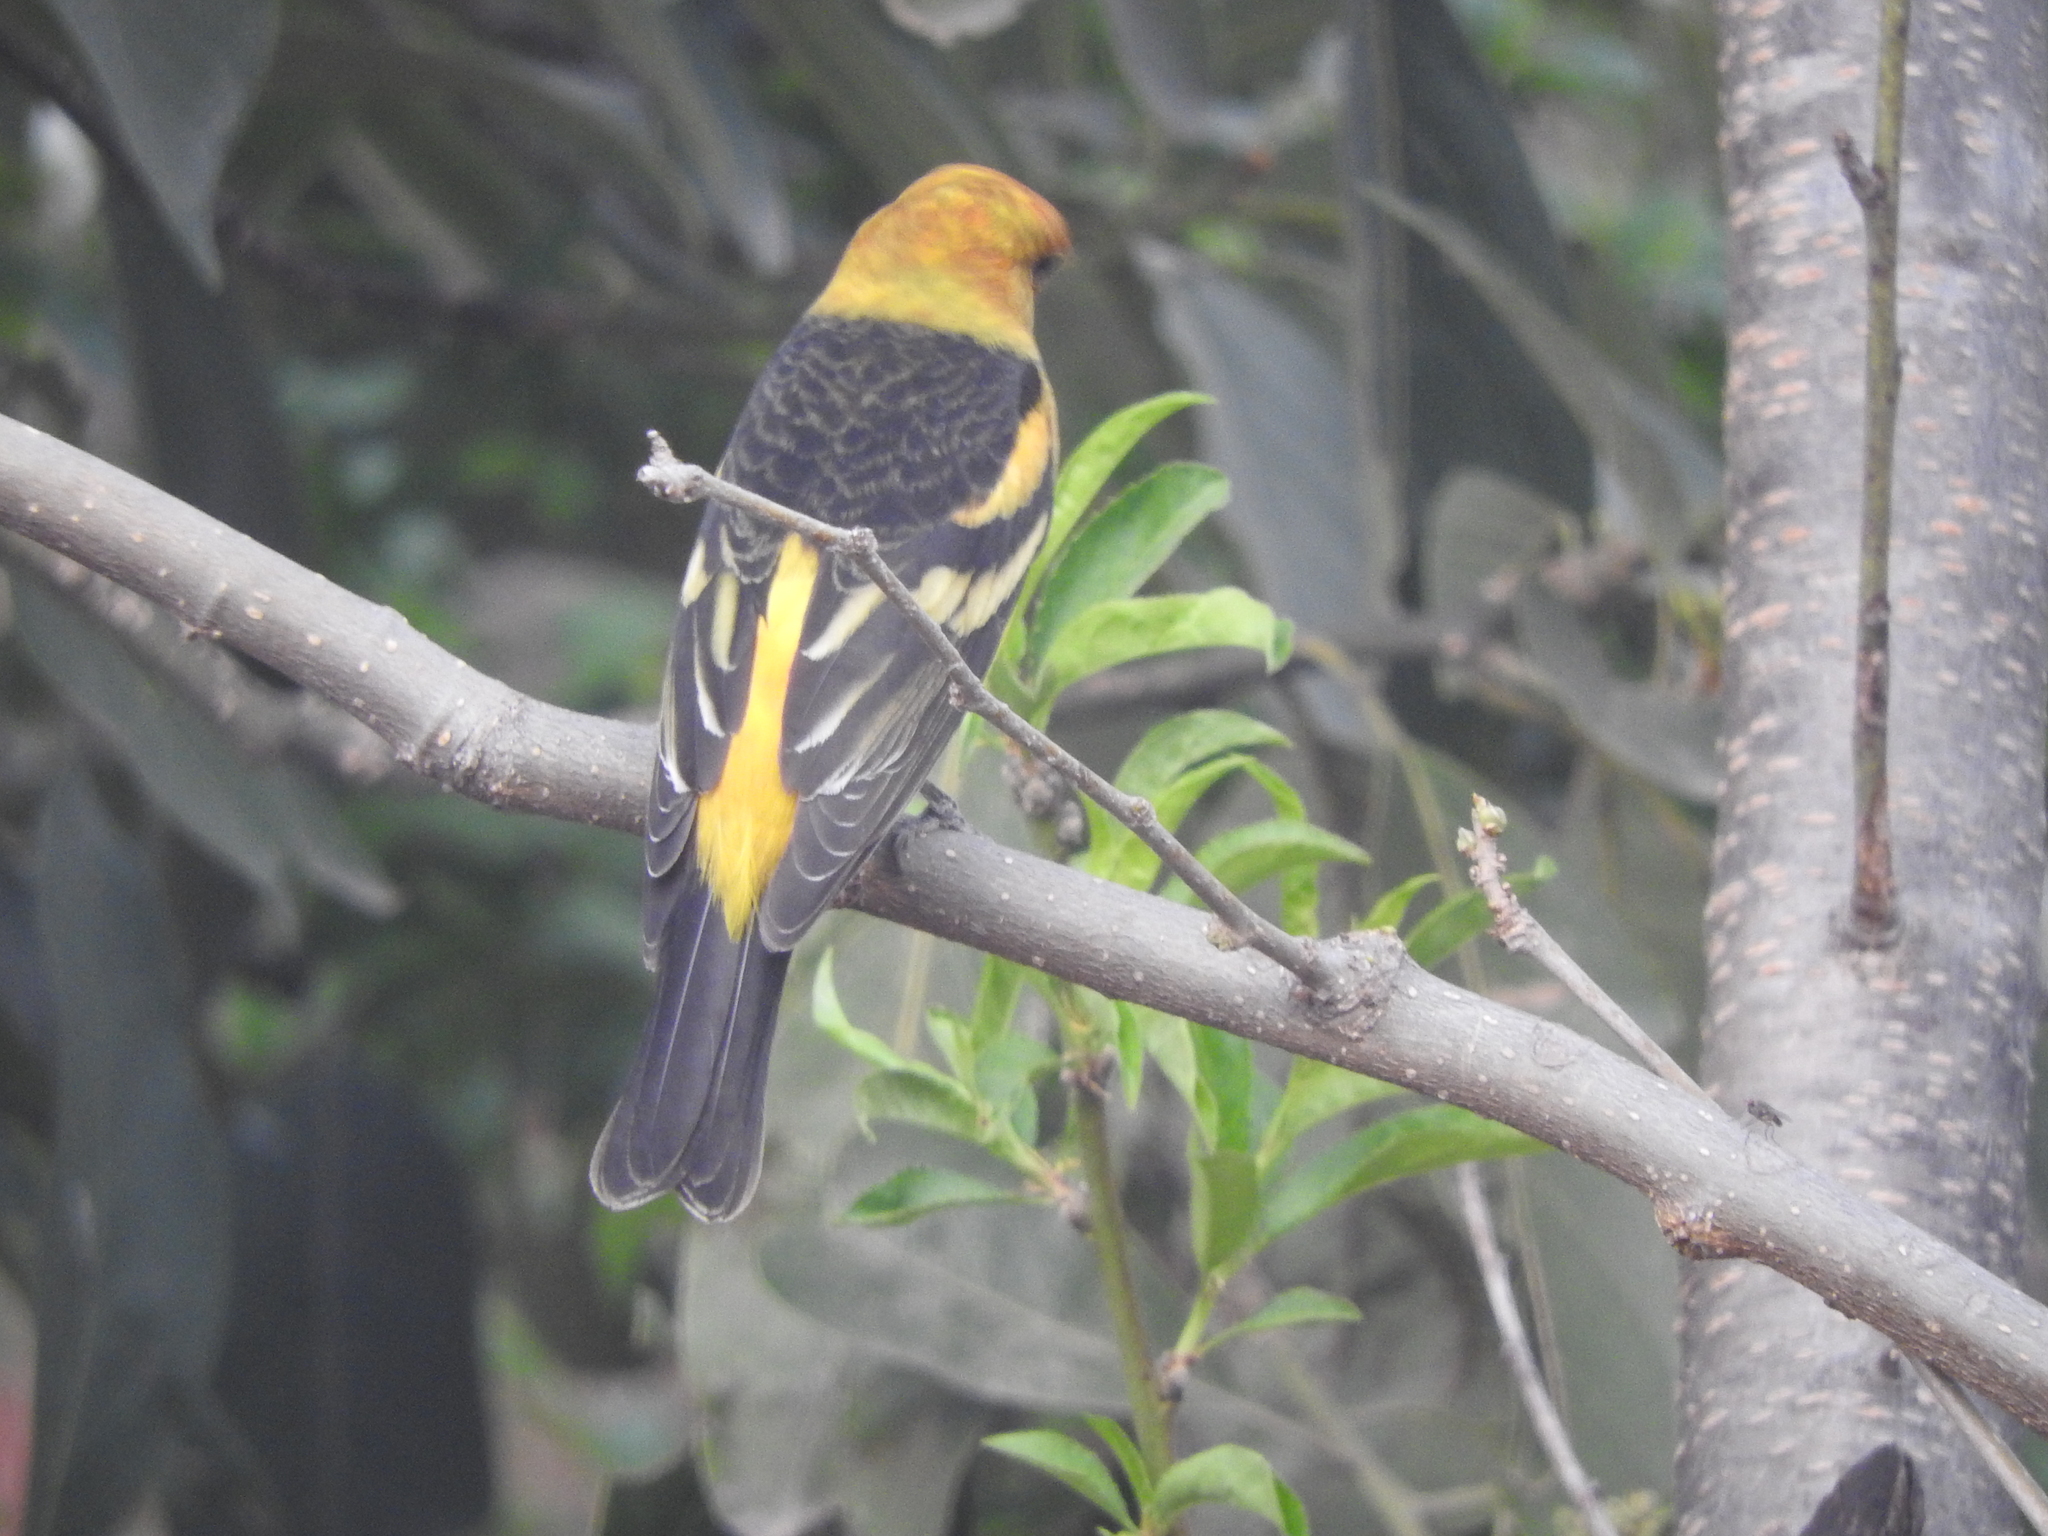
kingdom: Animalia
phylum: Chordata
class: Aves
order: Passeriformes
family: Cardinalidae
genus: Piranga
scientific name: Piranga ludoviciana
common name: Western tanager
